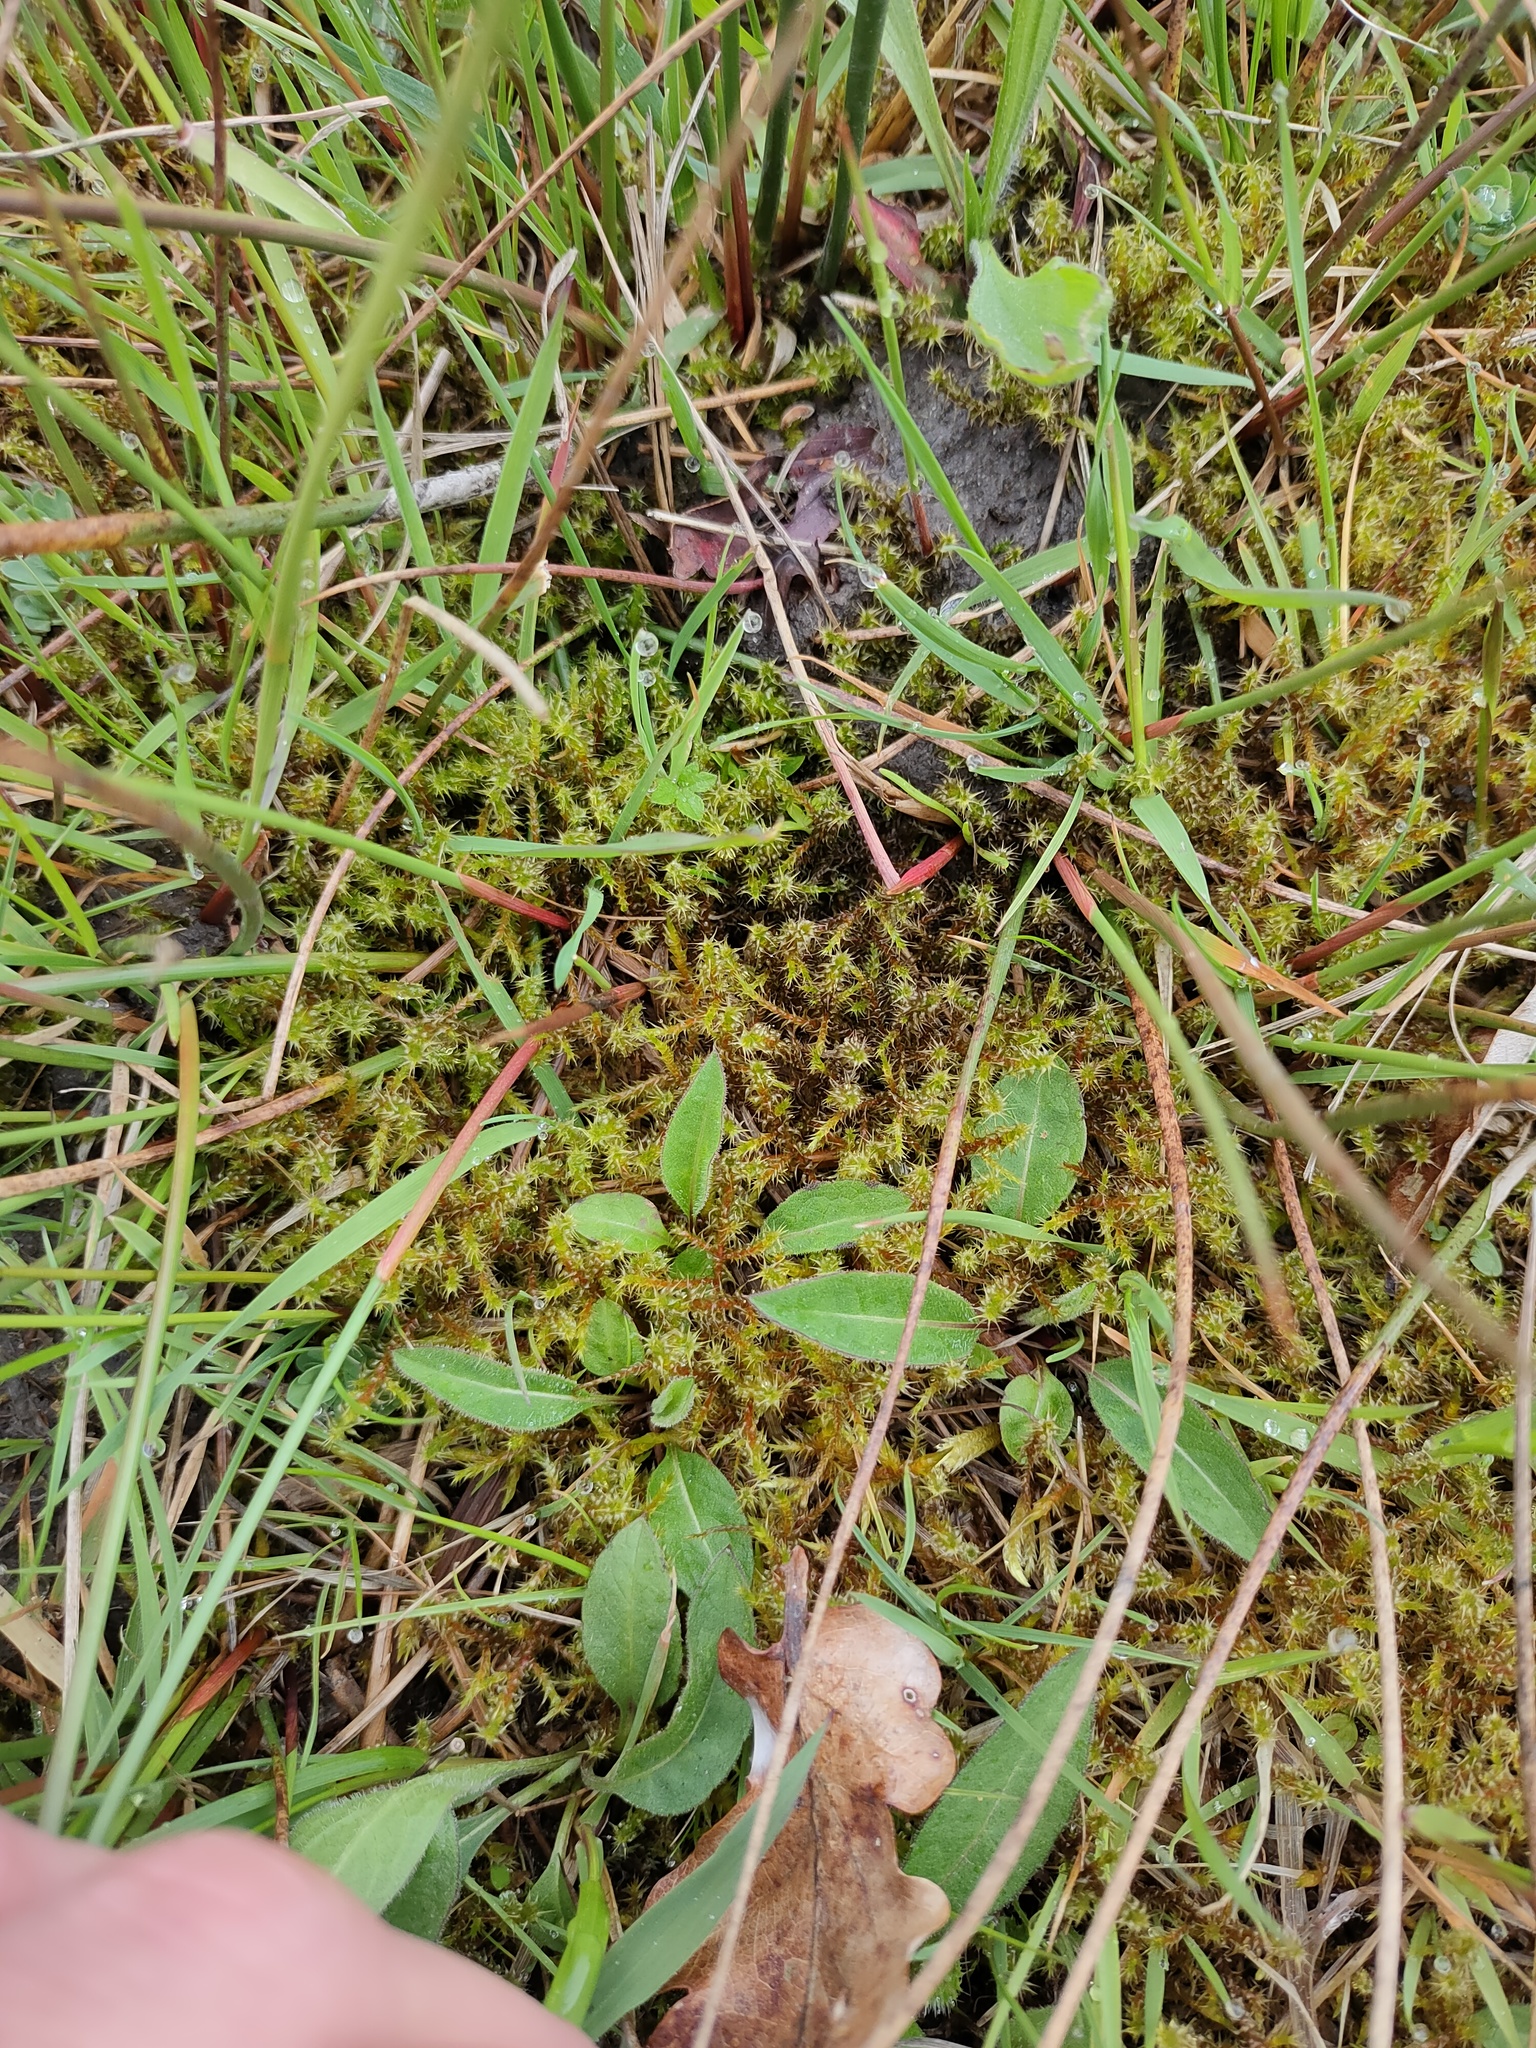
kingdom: Plantae
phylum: Bryophyta
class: Bryopsida
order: Hypnales
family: Hylocomiaceae
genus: Rhytidiadelphus
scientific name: Rhytidiadelphus squarrosus
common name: Springy turf-moss
